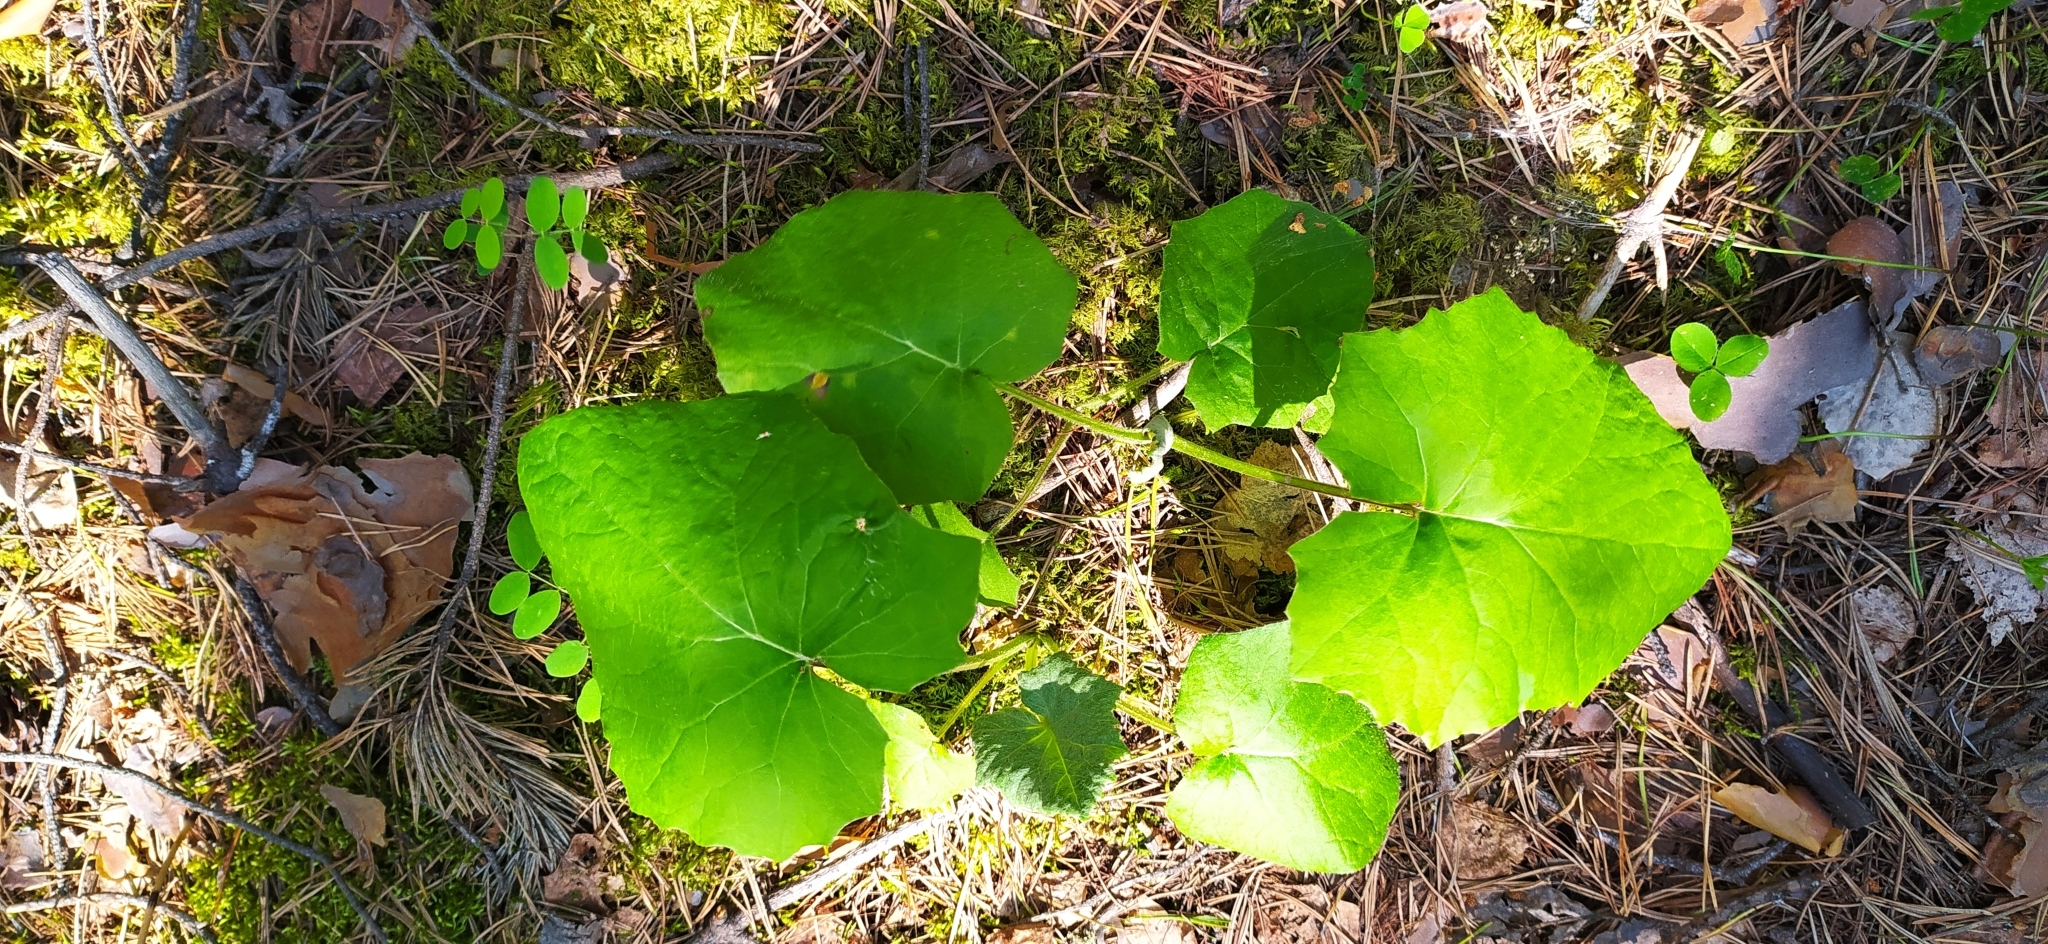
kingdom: Plantae
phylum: Tracheophyta
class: Magnoliopsida
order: Asterales
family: Asteraceae
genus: Tussilago
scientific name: Tussilago farfara
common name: Coltsfoot
